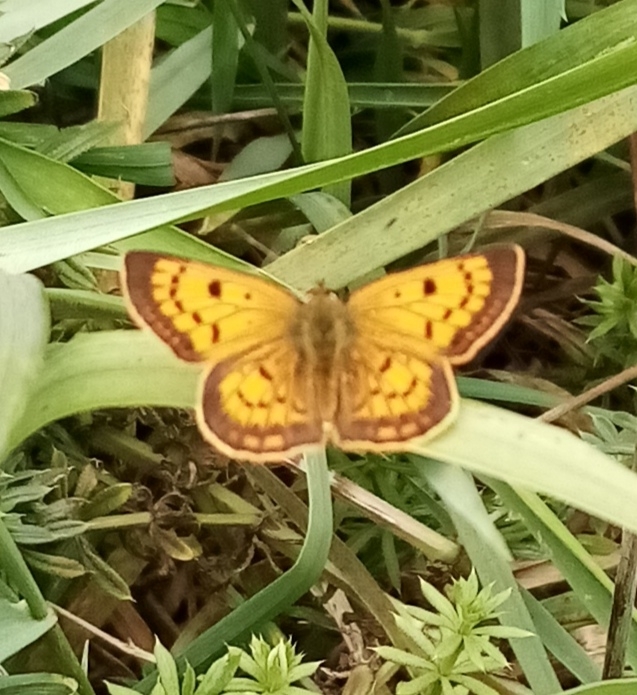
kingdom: Animalia
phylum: Arthropoda
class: Insecta
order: Lepidoptera
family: Lycaenidae
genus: Lycaena
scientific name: Lycaena
